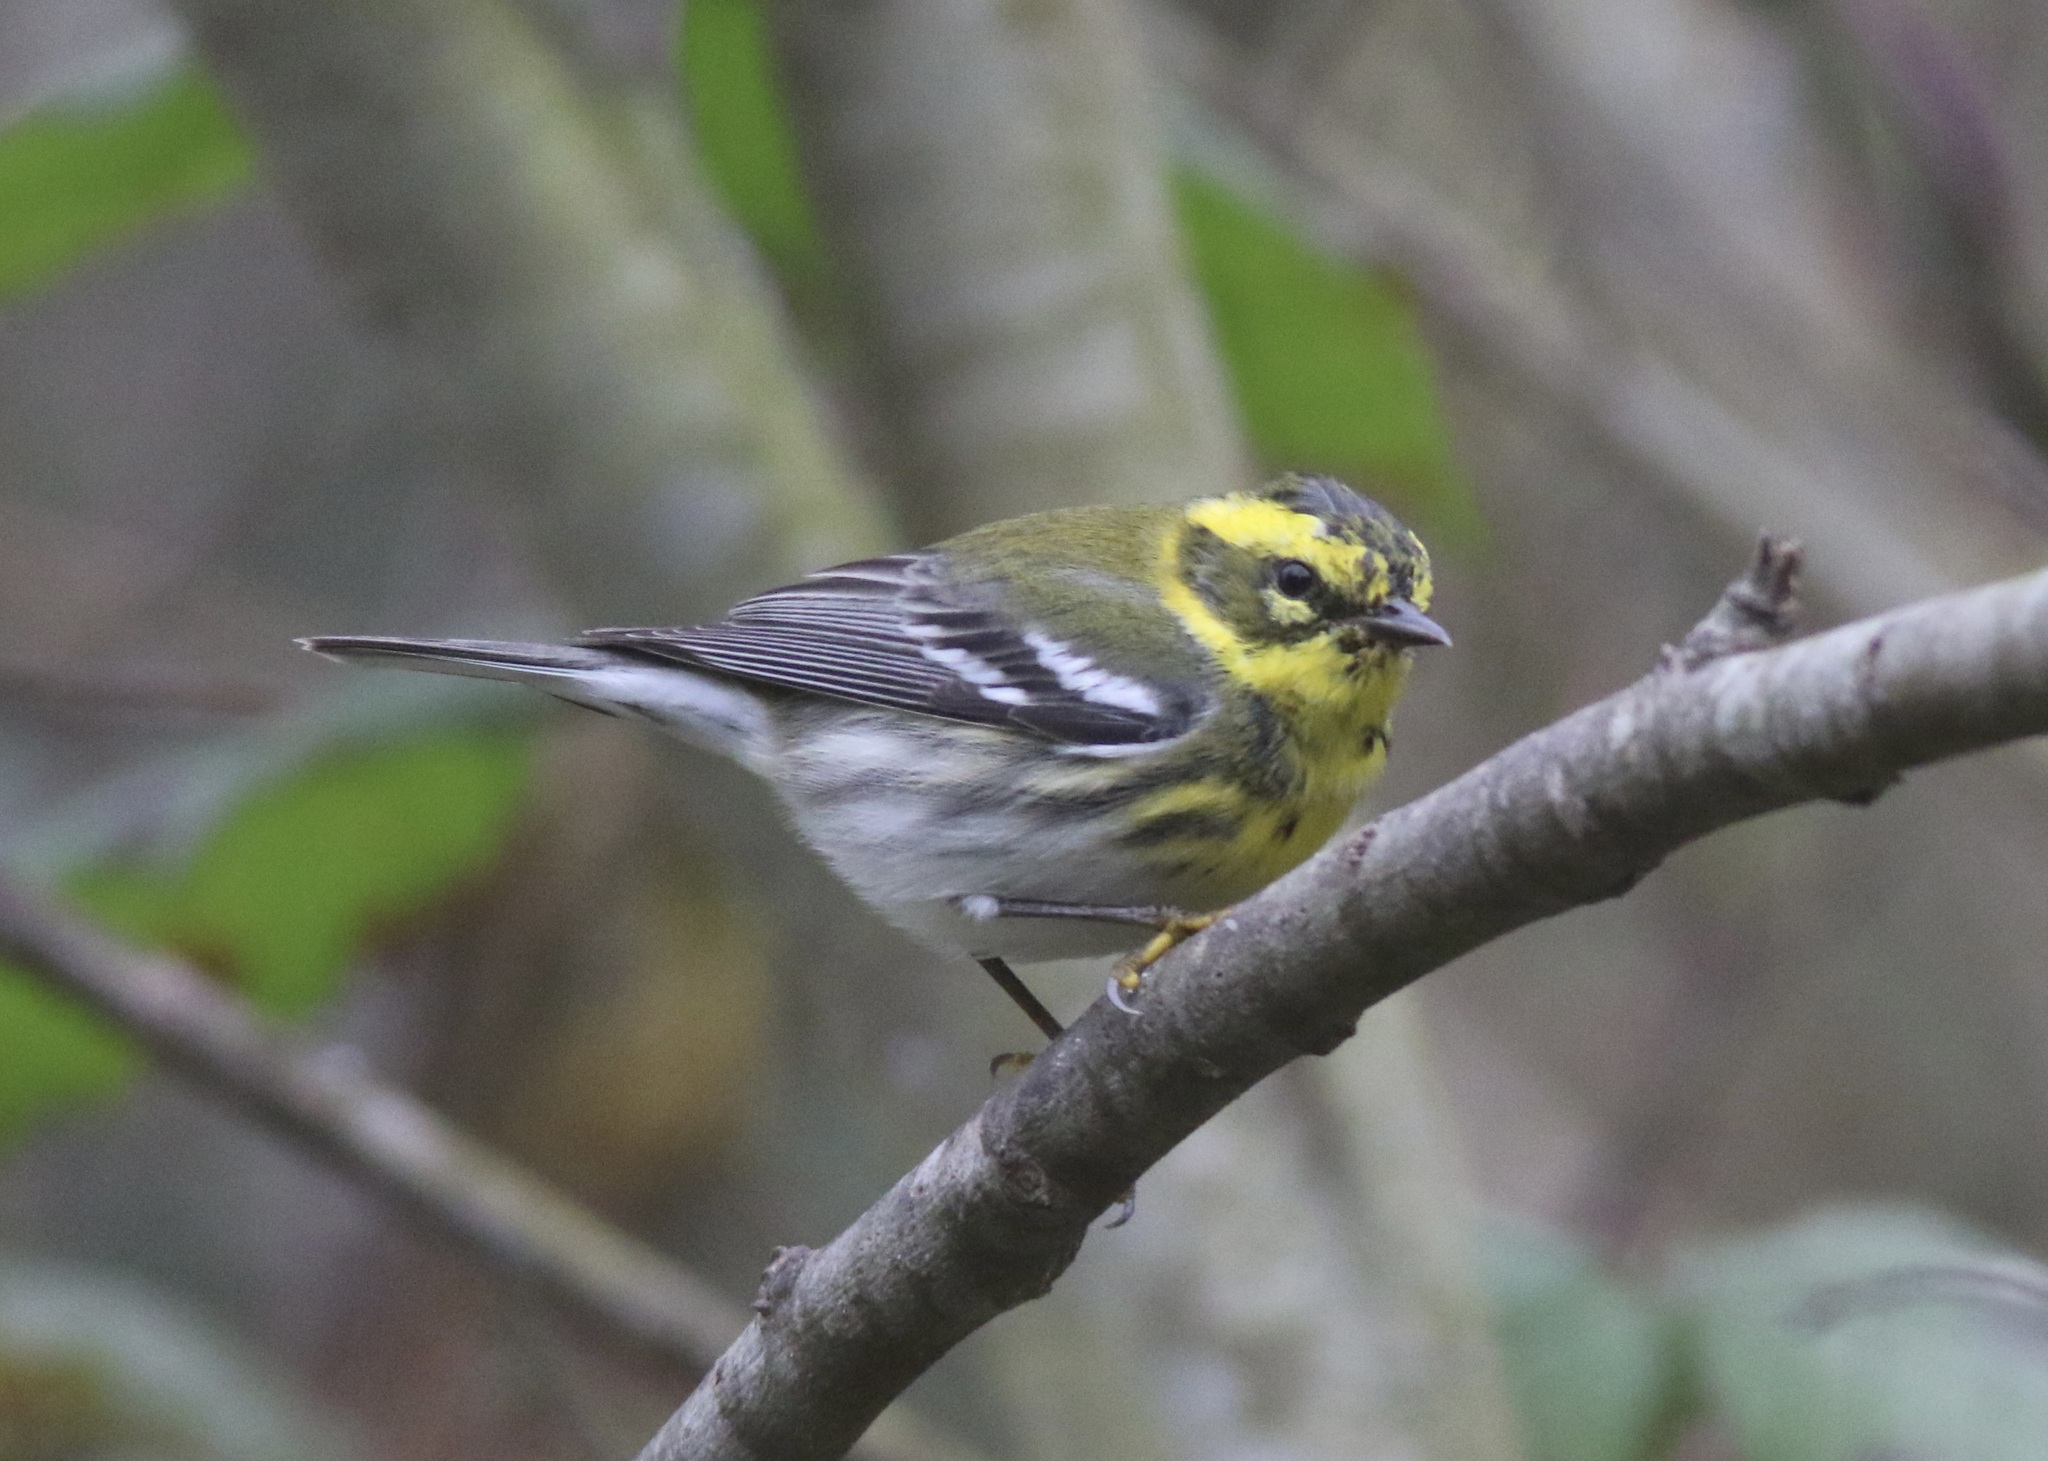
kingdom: Animalia
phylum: Chordata
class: Aves
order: Passeriformes
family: Parulidae
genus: Setophaga
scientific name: Setophaga townsendi
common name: Townsend's warbler
